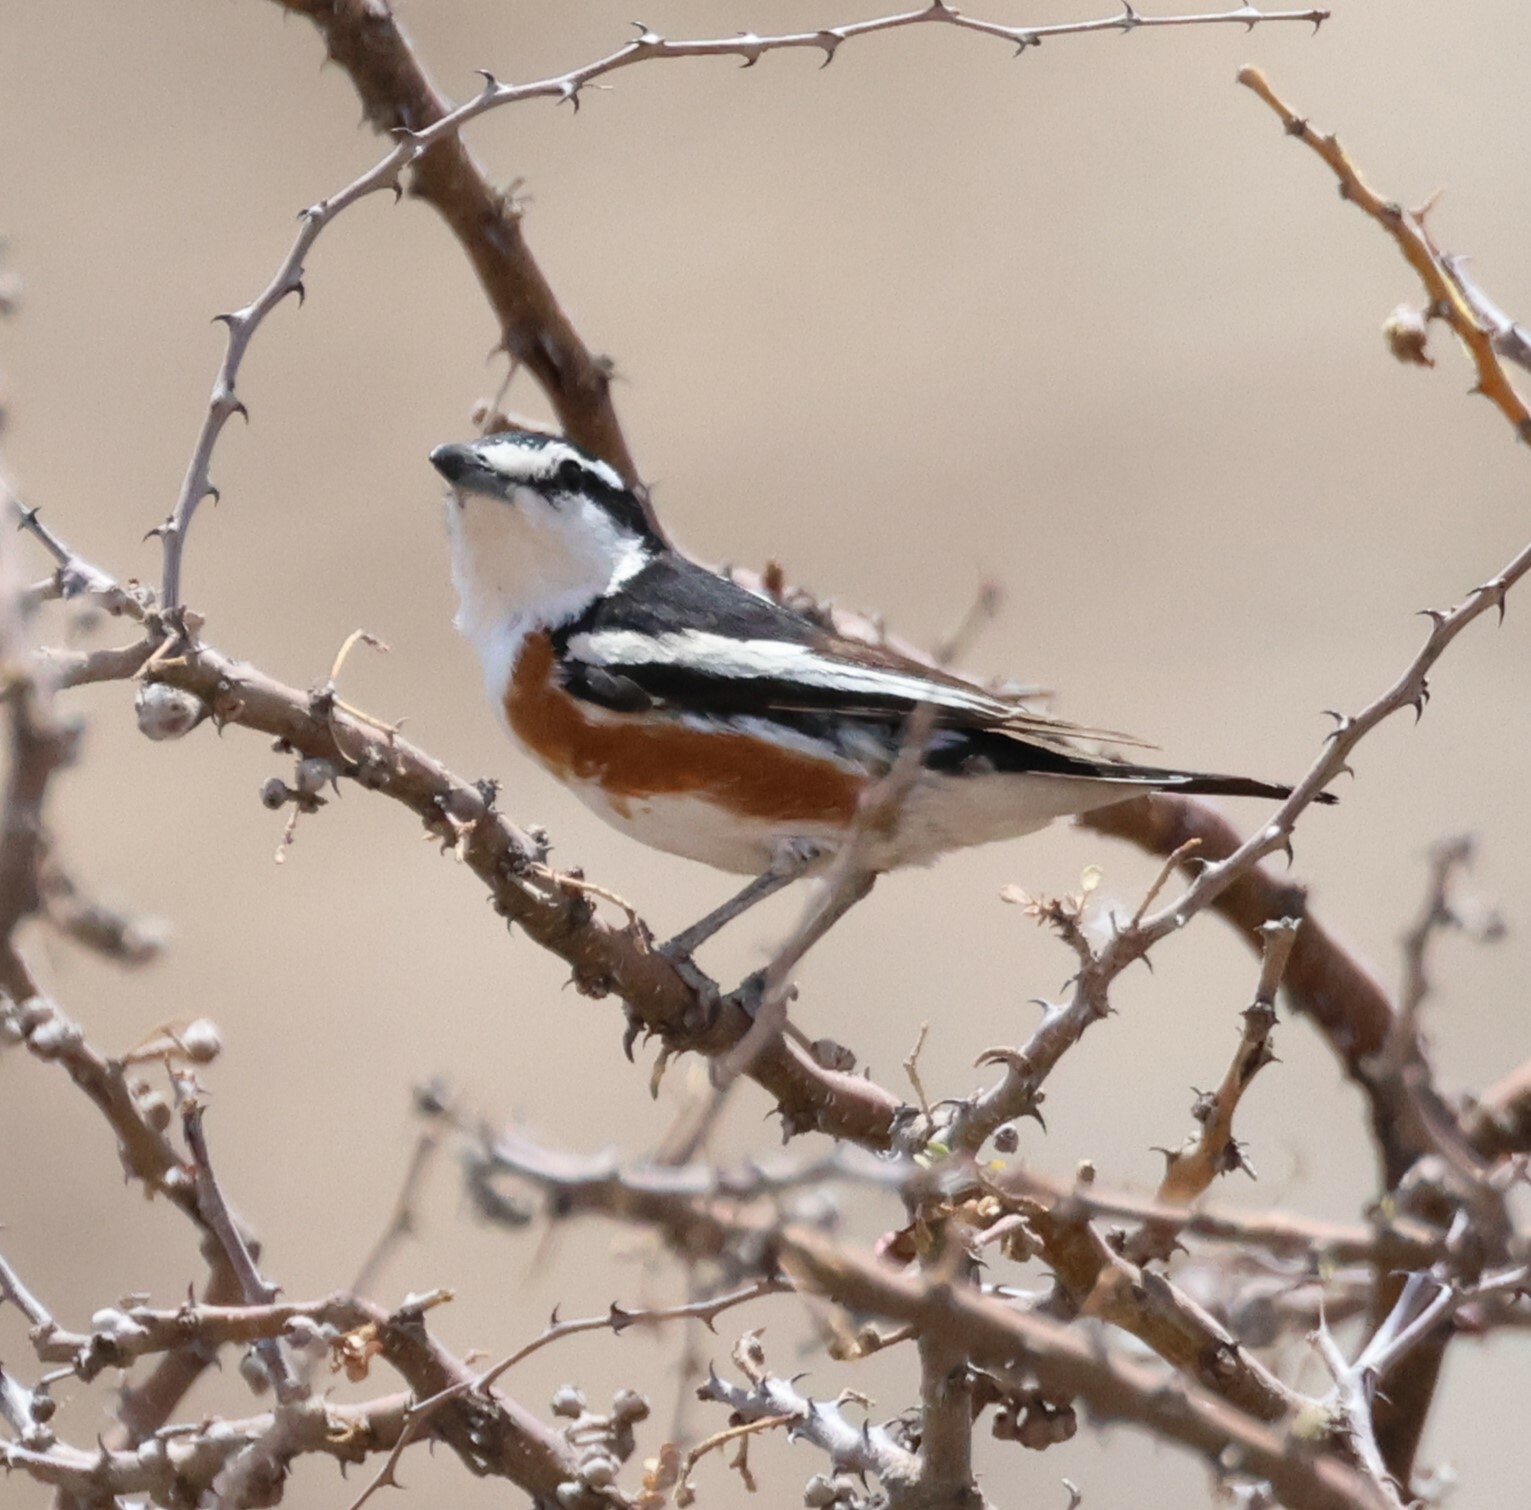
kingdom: Animalia
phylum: Chordata
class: Aves
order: Passeriformes
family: Malaconotidae
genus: Nilaus
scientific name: Nilaus afer
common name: Brubru
